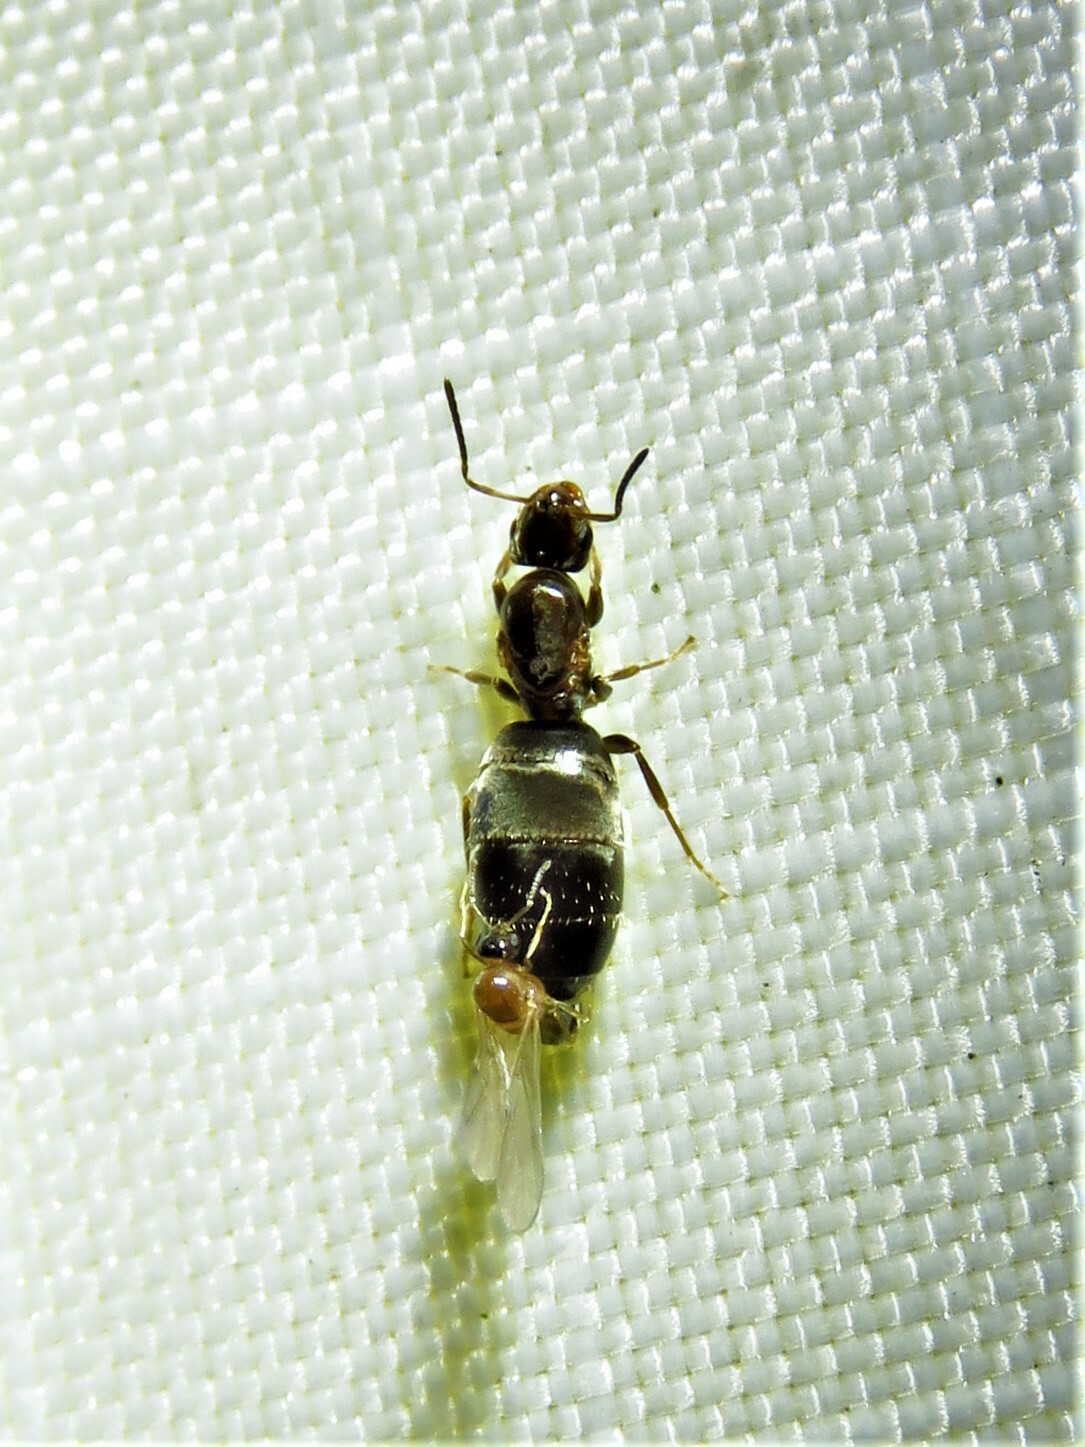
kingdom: Animalia
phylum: Arthropoda
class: Insecta
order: Hymenoptera
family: Formicidae
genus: Brachymyrmex
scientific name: Brachymyrmex patagonicus
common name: Dark rover ant
